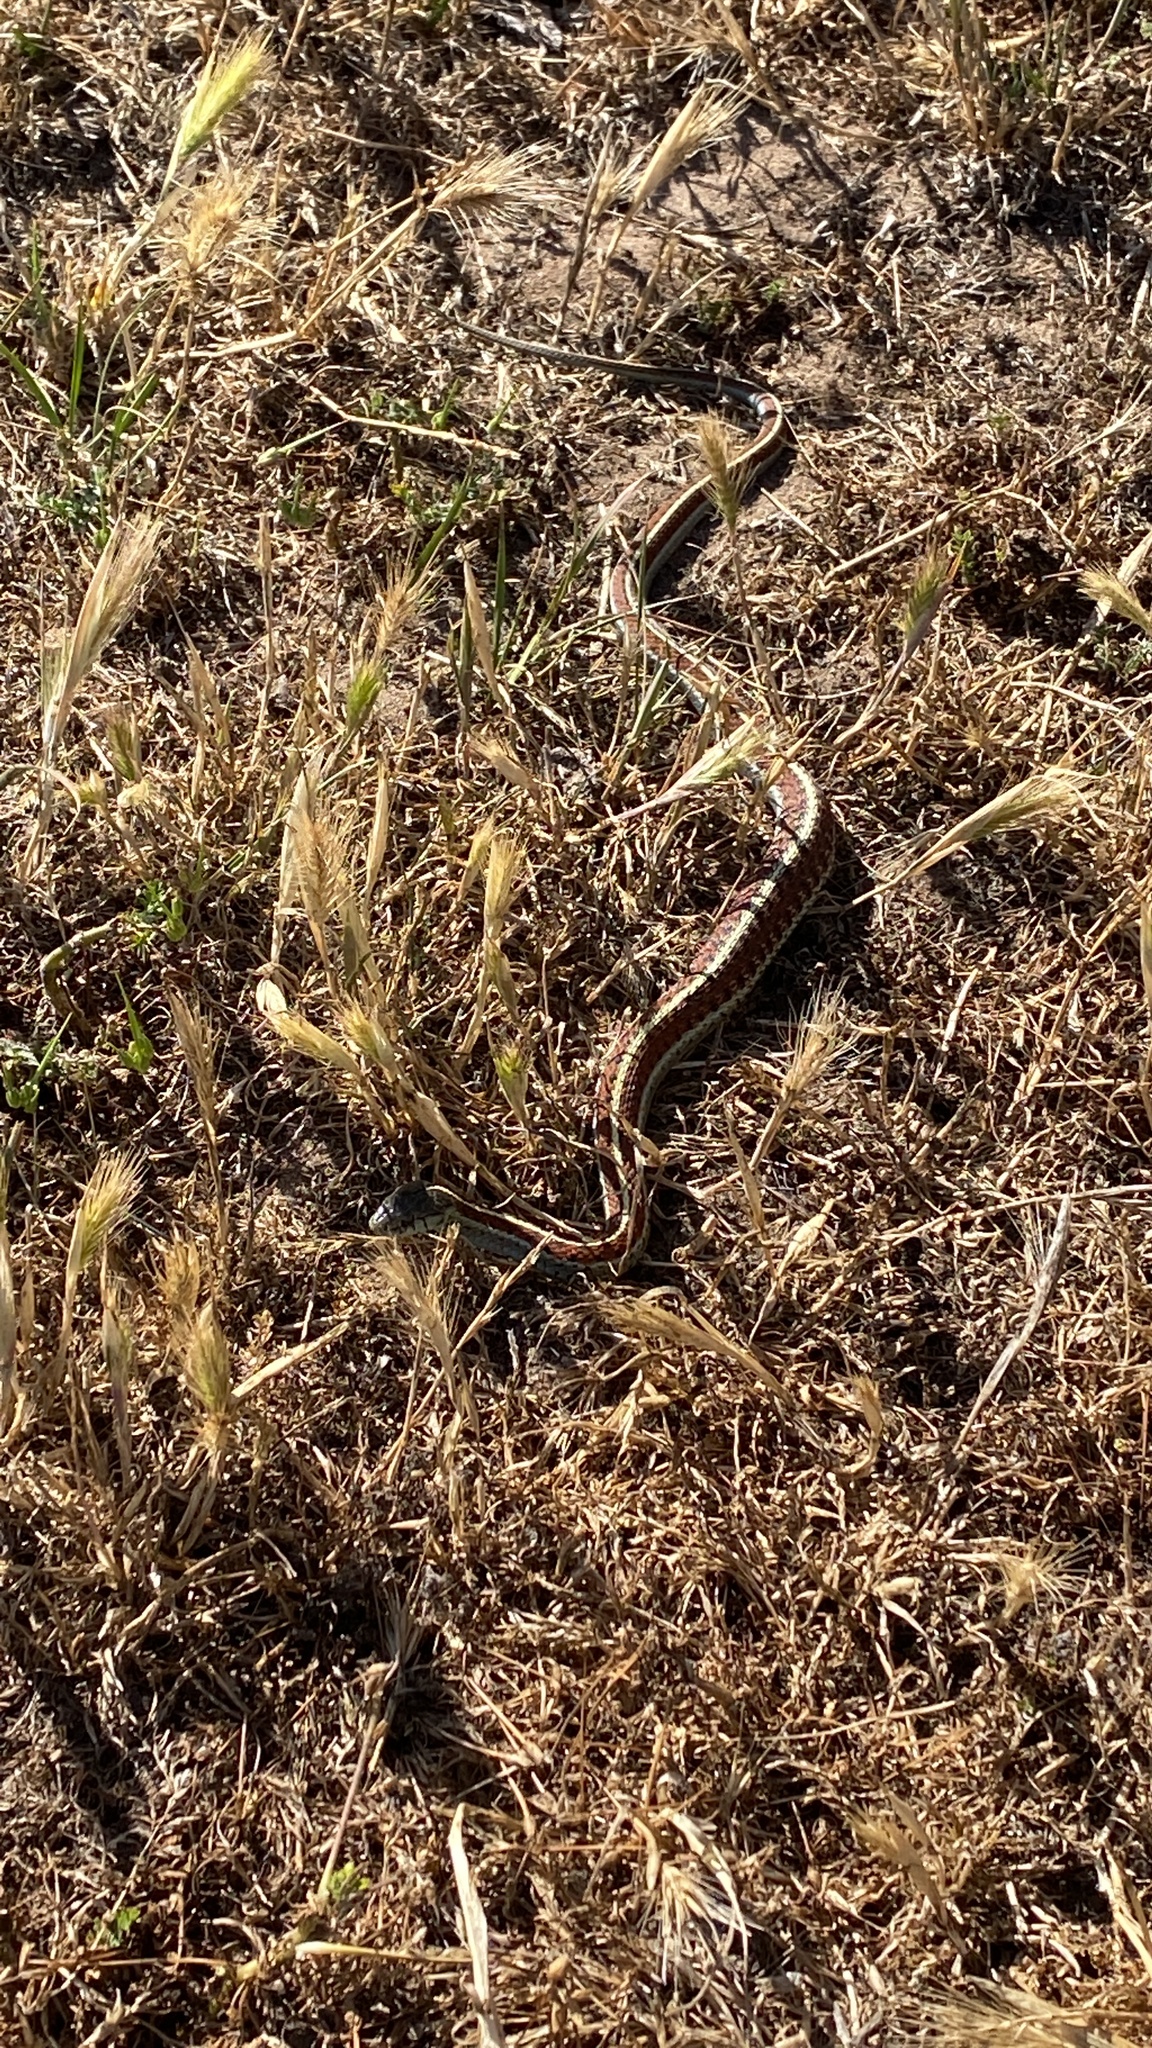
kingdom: Animalia
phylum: Chordata
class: Squamata
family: Colubridae
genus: Thamnophis
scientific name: Thamnophis elegans
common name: Western terrestrial garter snake
